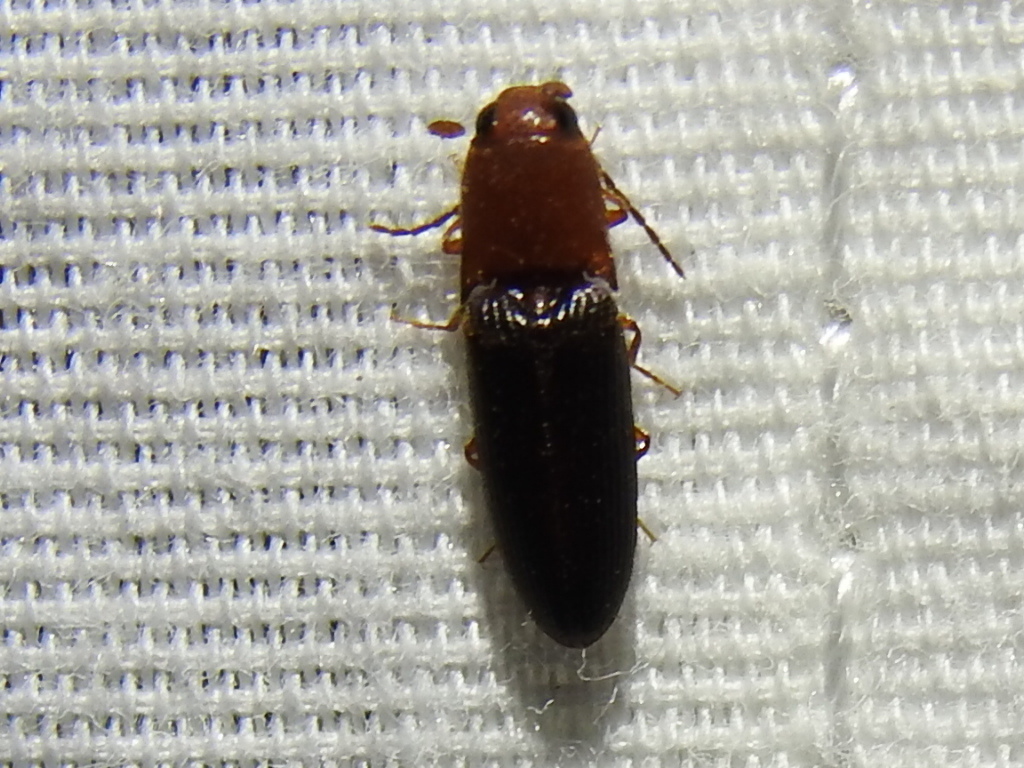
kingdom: Animalia
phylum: Arthropoda
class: Insecta
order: Coleoptera
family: Elateridae
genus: Anchastus
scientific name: Anchastus
